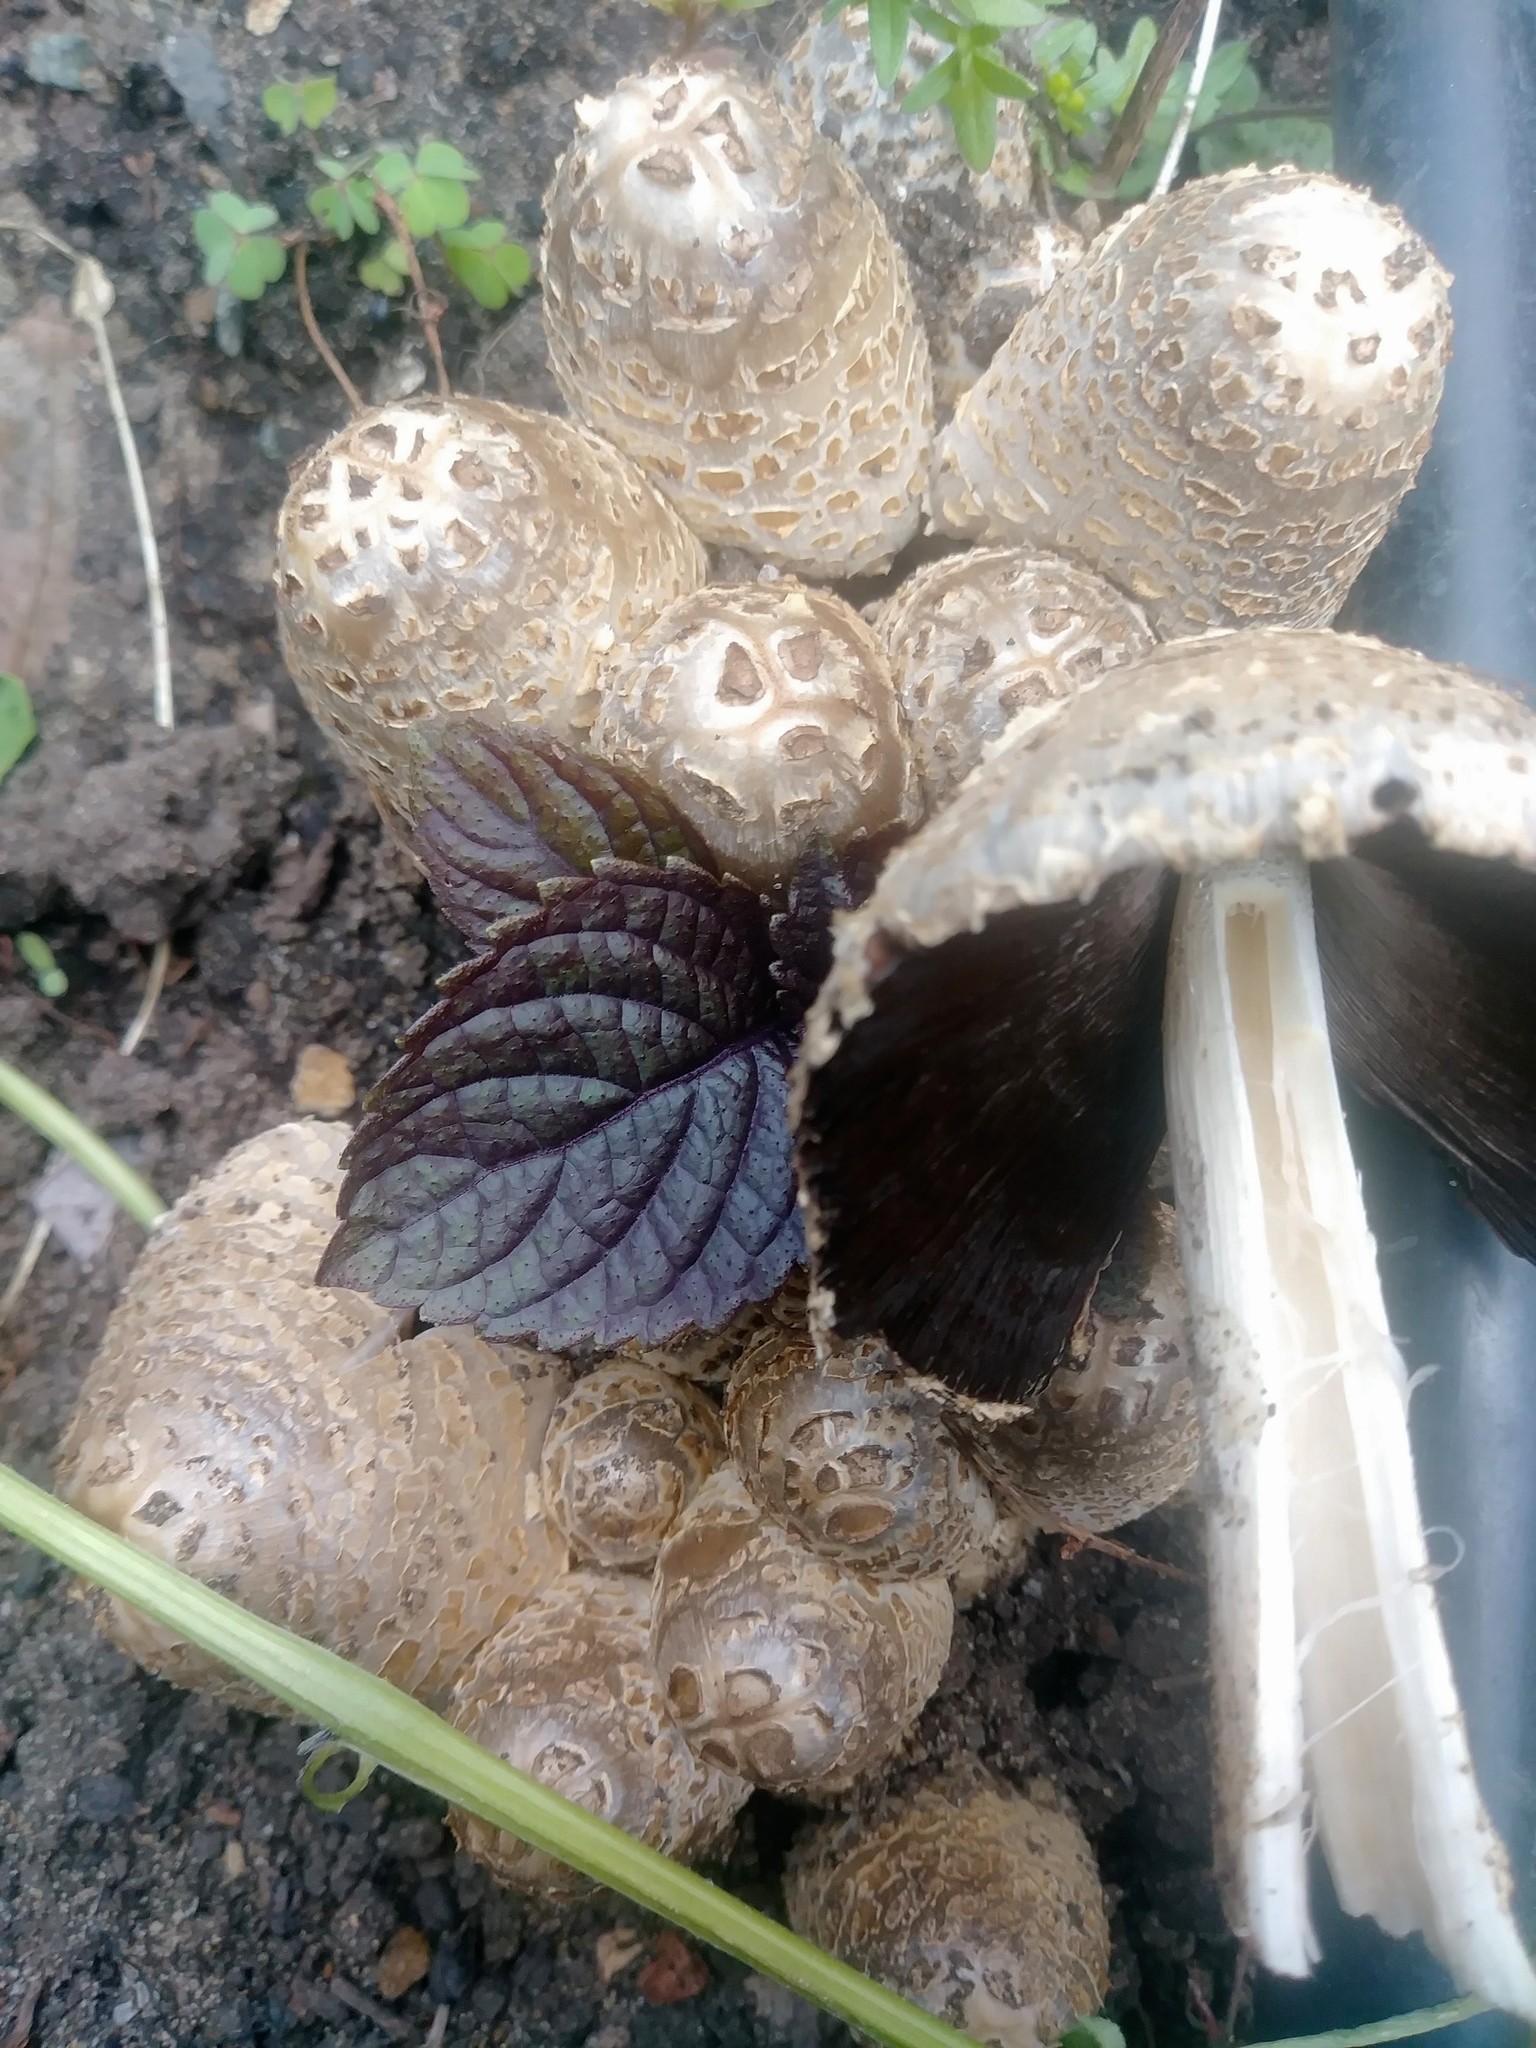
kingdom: Fungi
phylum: Basidiomycota
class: Agaricomycetes
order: Agaricales
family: Psathyrellaceae
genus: Coprinopsis
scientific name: Coprinopsis romagnesiana
